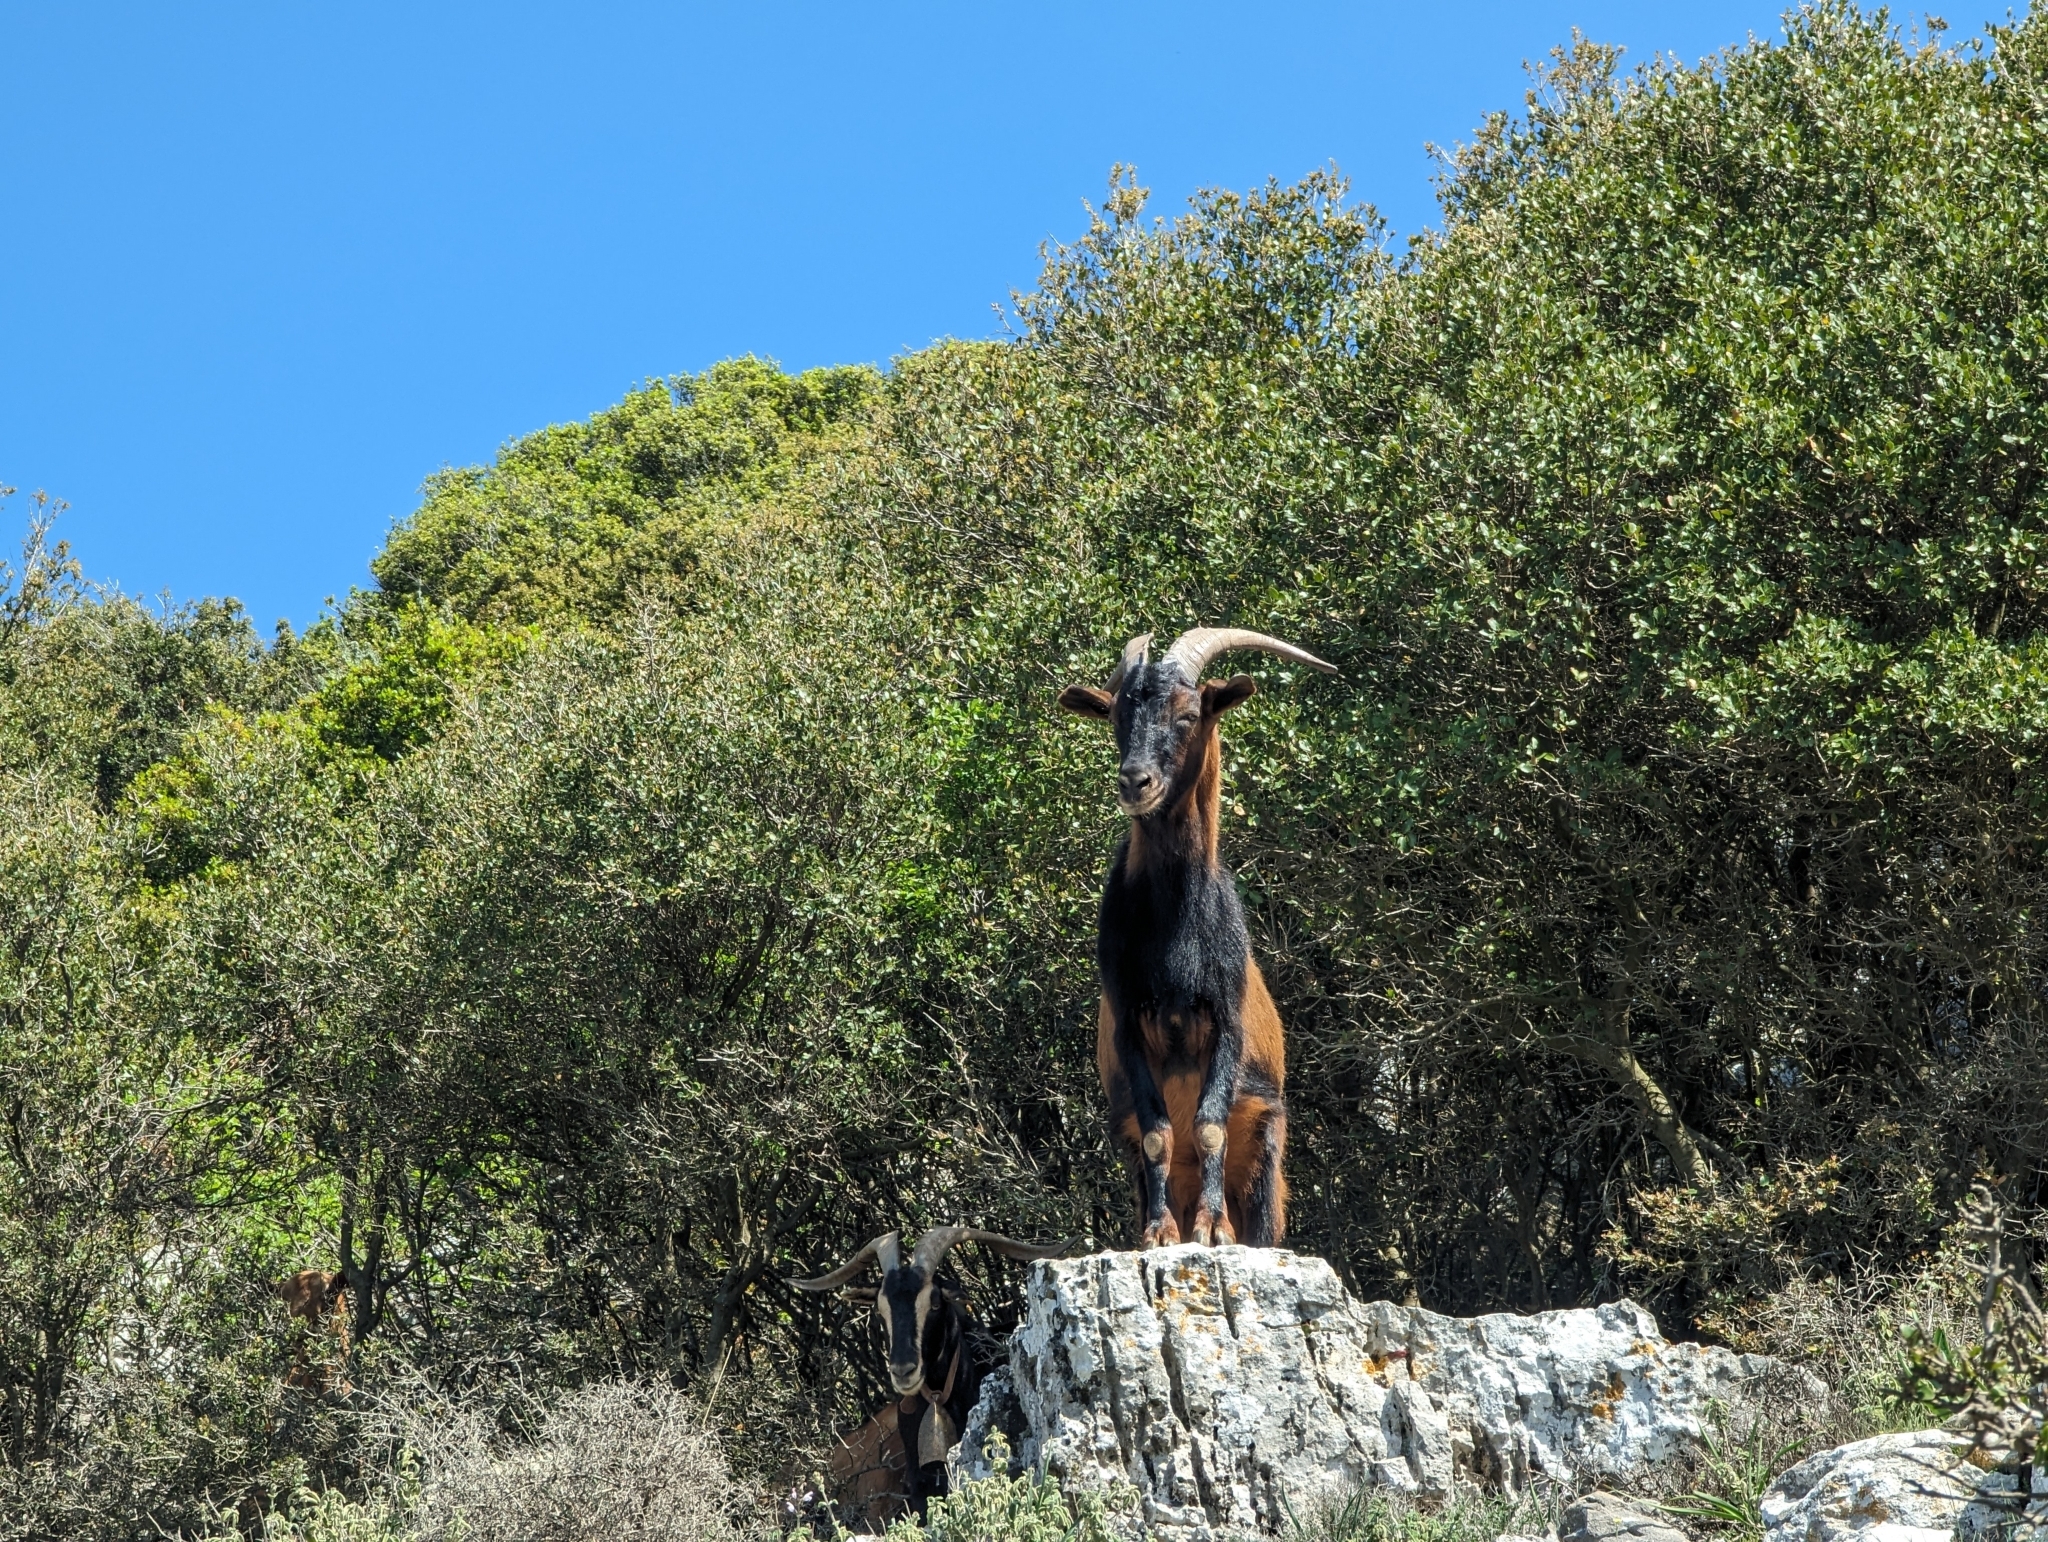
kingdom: Animalia
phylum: Chordata
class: Mammalia
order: Artiodactyla
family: Bovidae
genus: Capra
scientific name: Capra hircus
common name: Domestic goat
